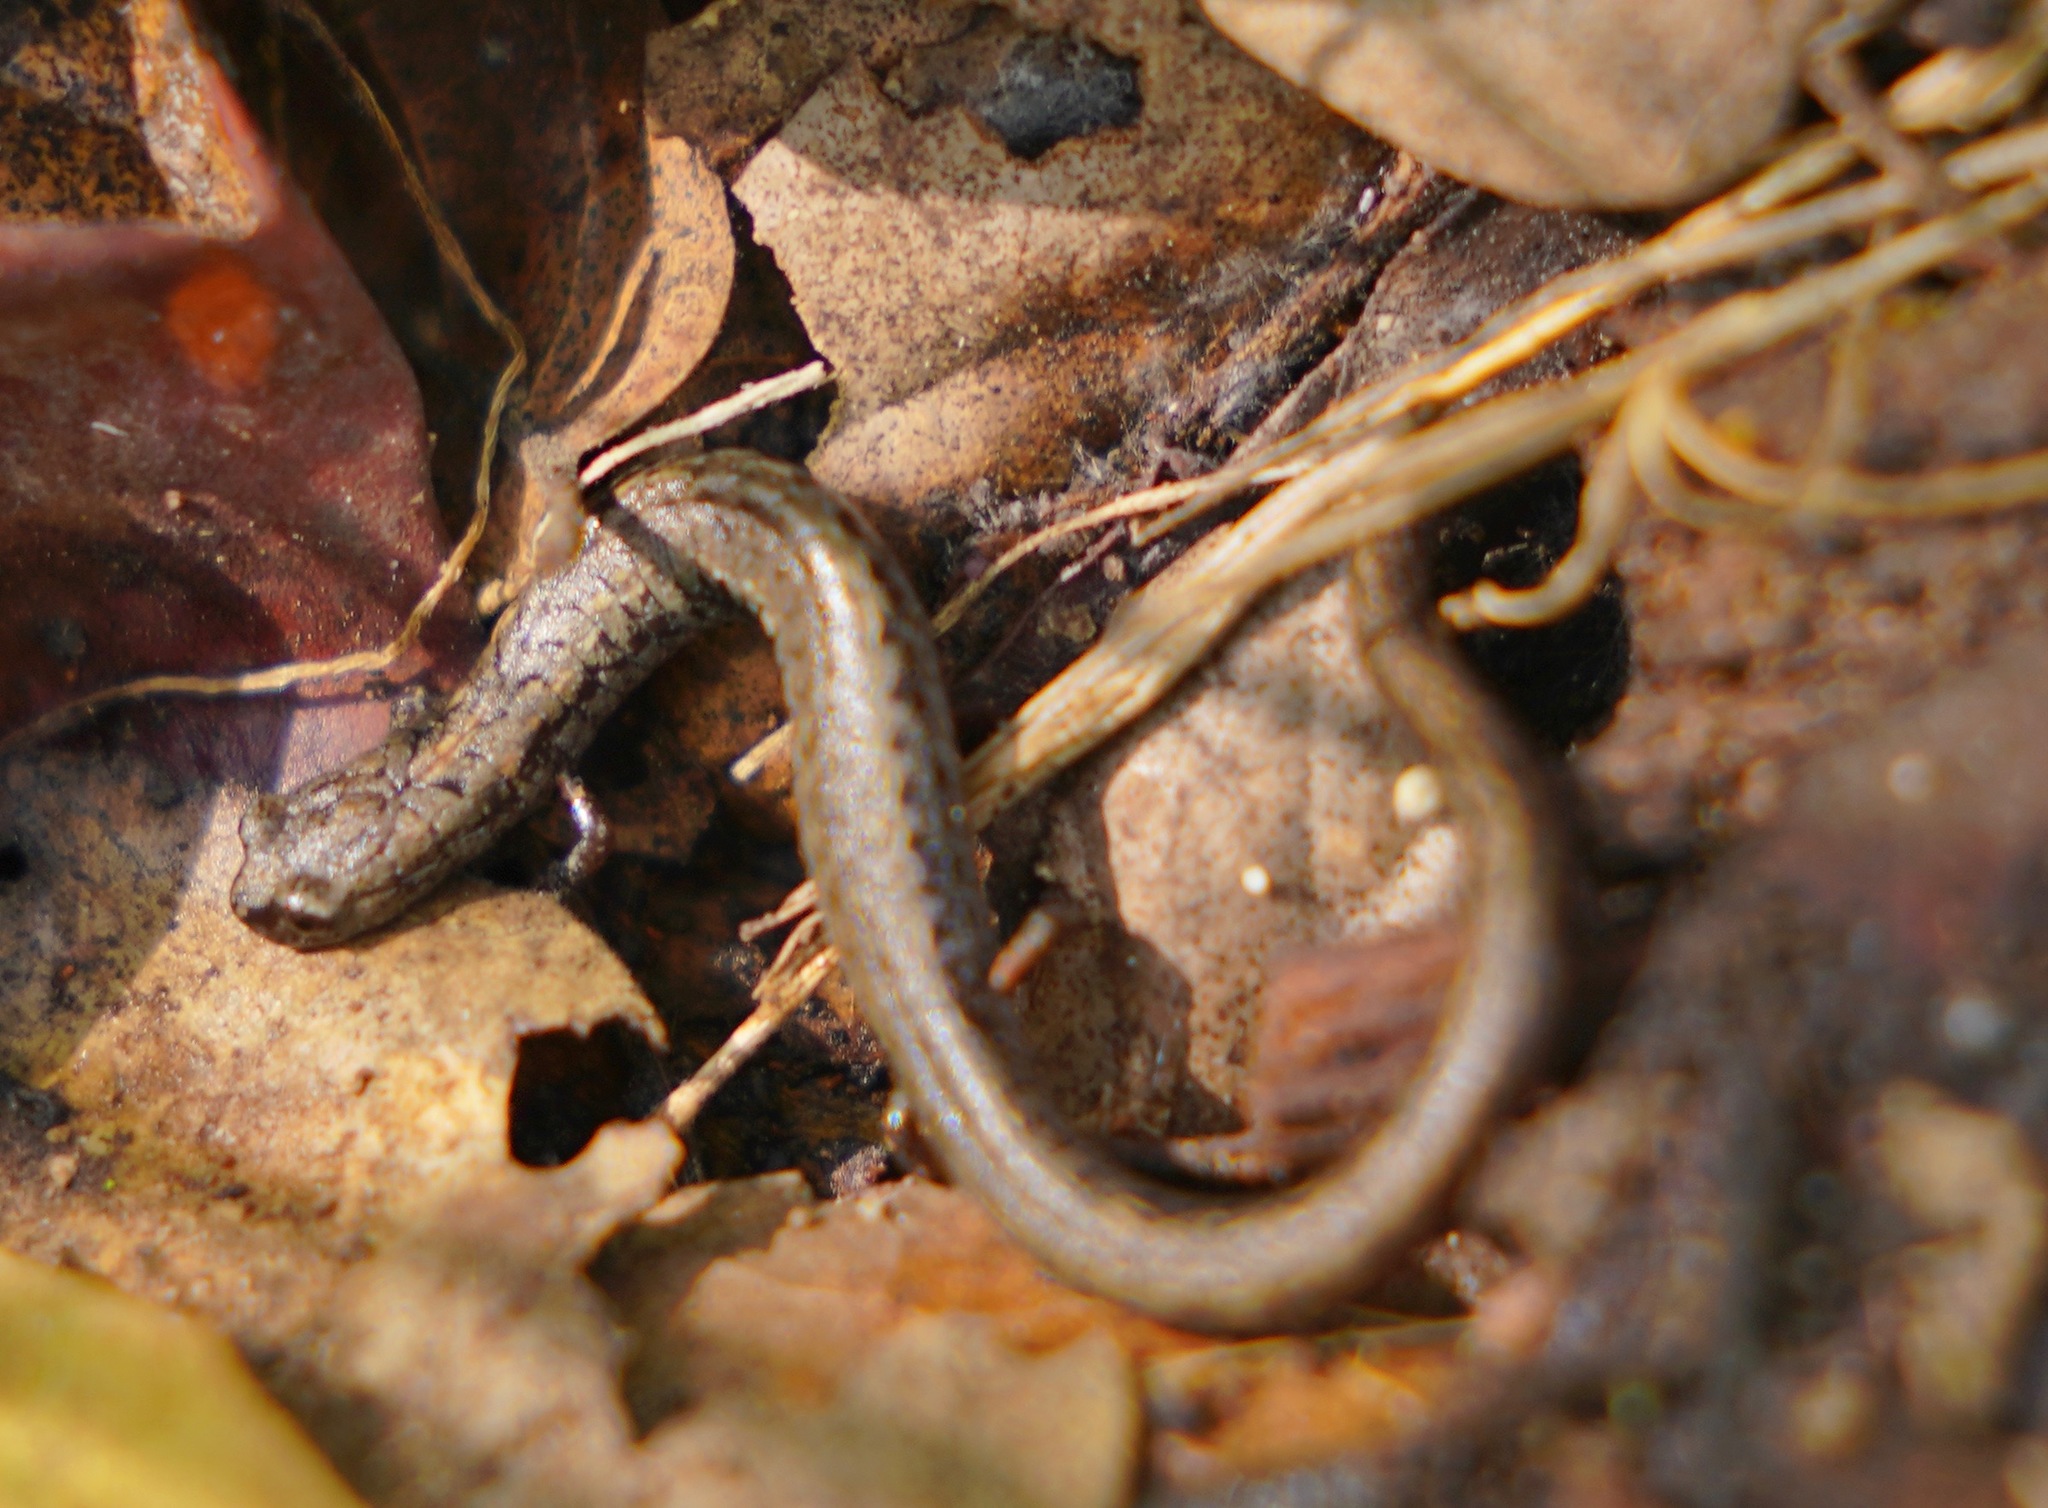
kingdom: Animalia
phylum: Chordata
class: Amphibia
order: Caudata
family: Plethodontidae
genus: Batrachoseps
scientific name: Batrachoseps attenuatus
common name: California slender salamander
